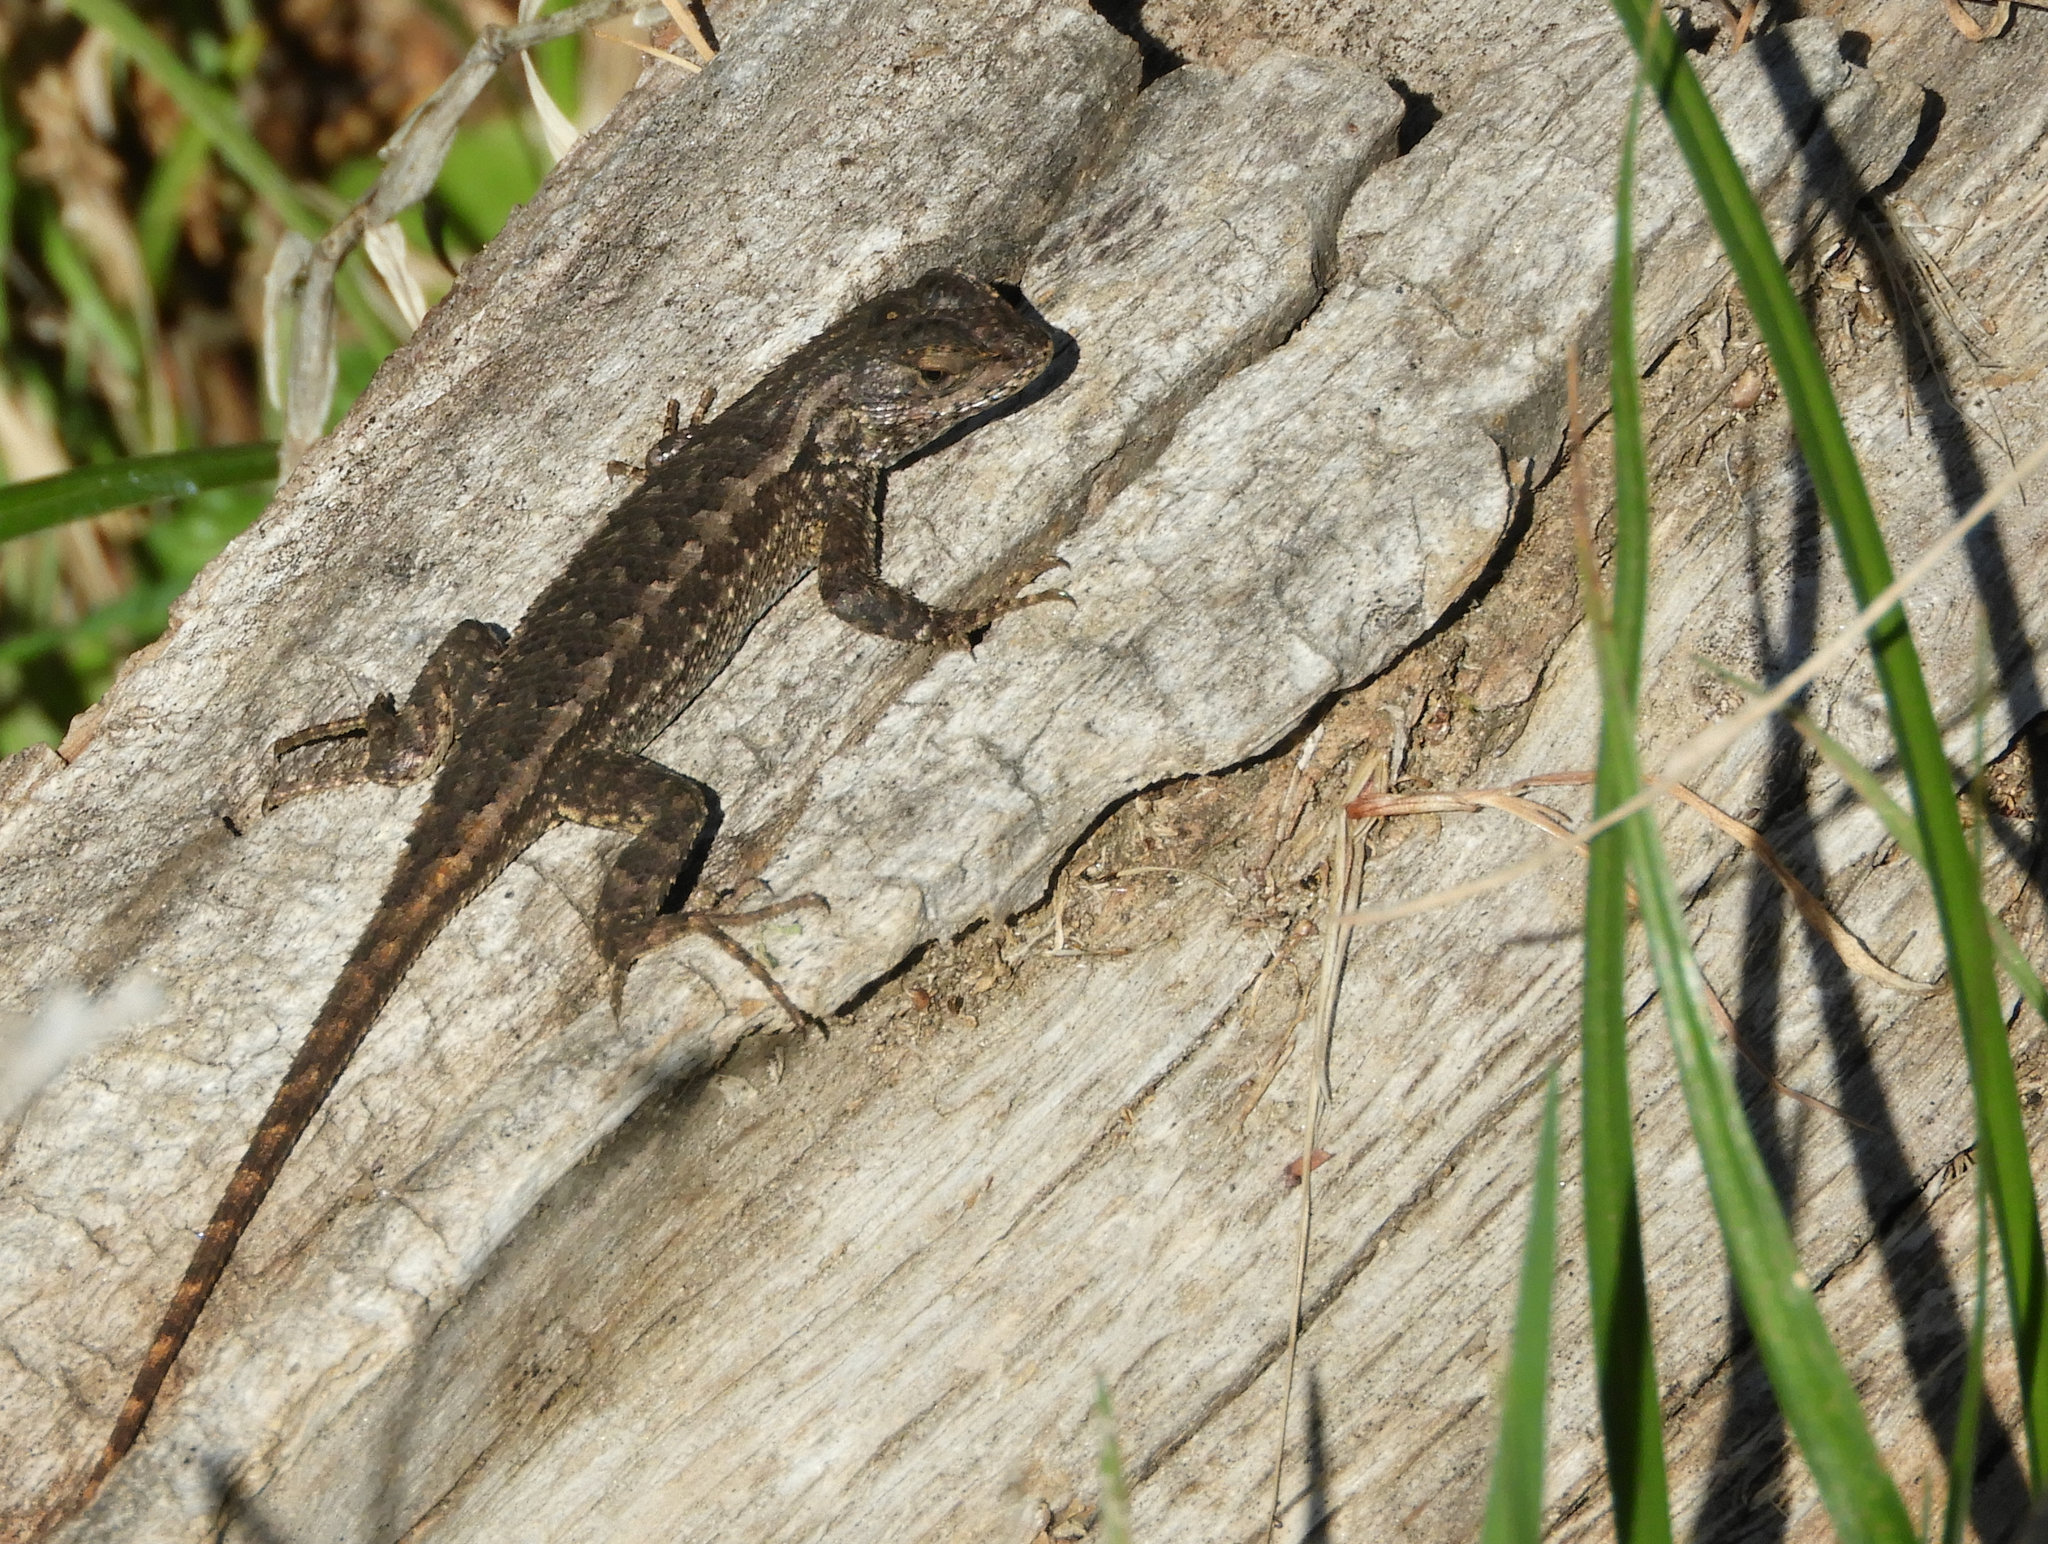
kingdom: Animalia
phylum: Chordata
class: Squamata
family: Phrynosomatidae
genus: Sceloporus
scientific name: Sceloporus occidentalis
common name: Western fence lizard
